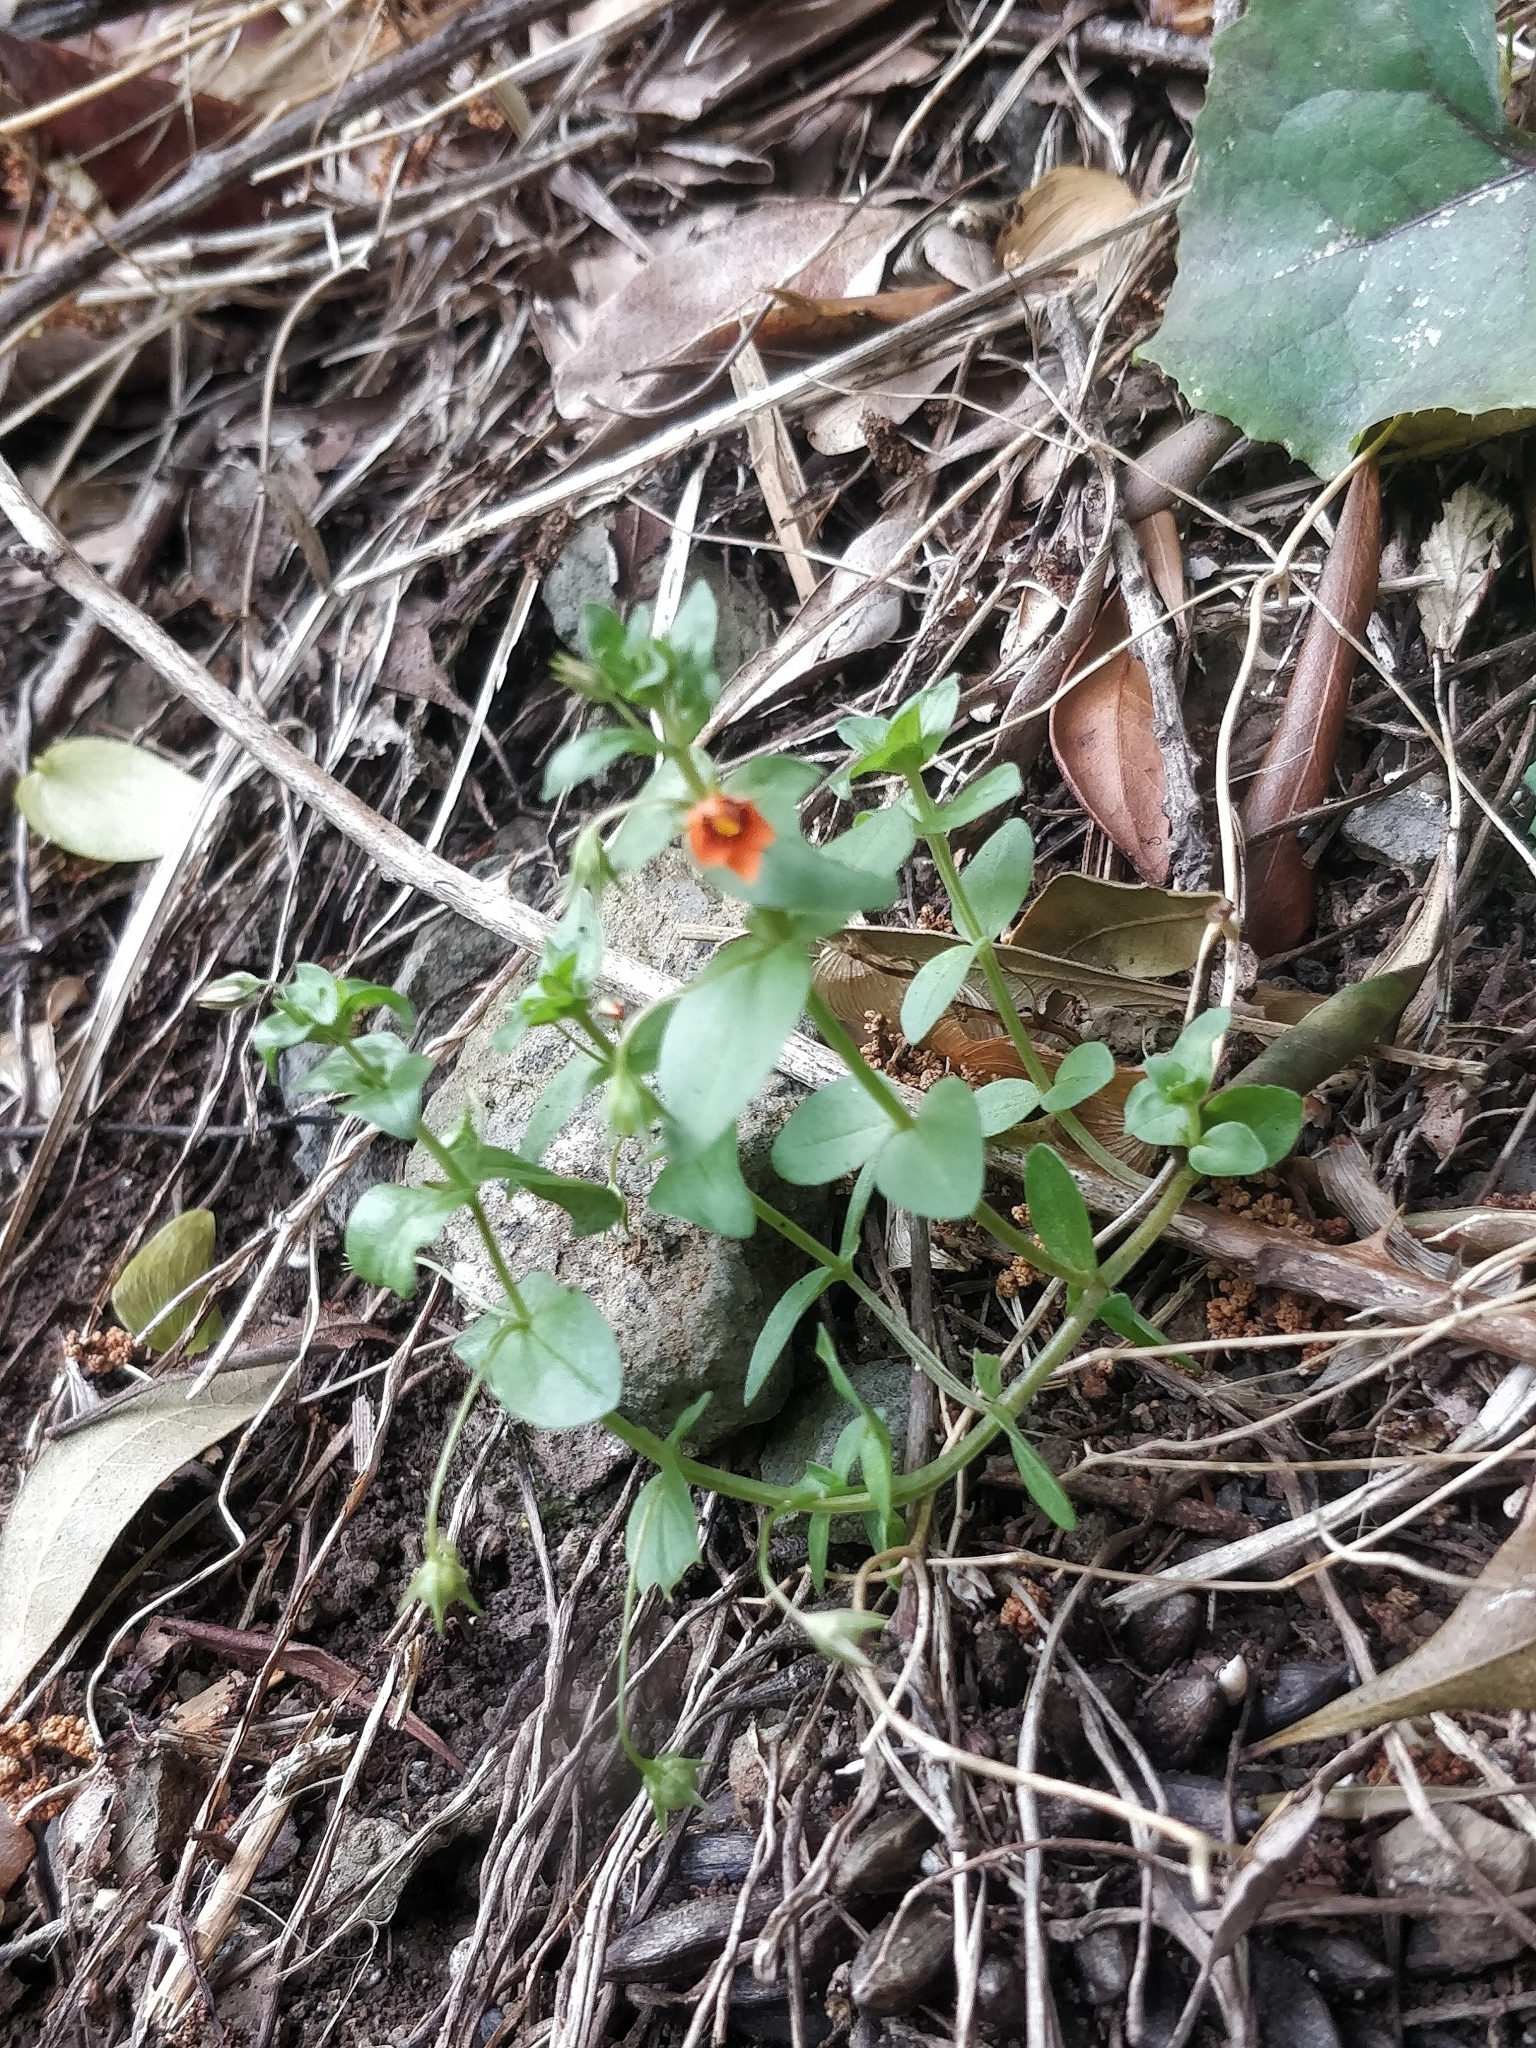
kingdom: Plantae
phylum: Tracheophyta
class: Magnoliopsida
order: Ericales
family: Primulaceae
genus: Lysimachia
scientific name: Lysimachia arvensis
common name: Scarlet pimpernel
